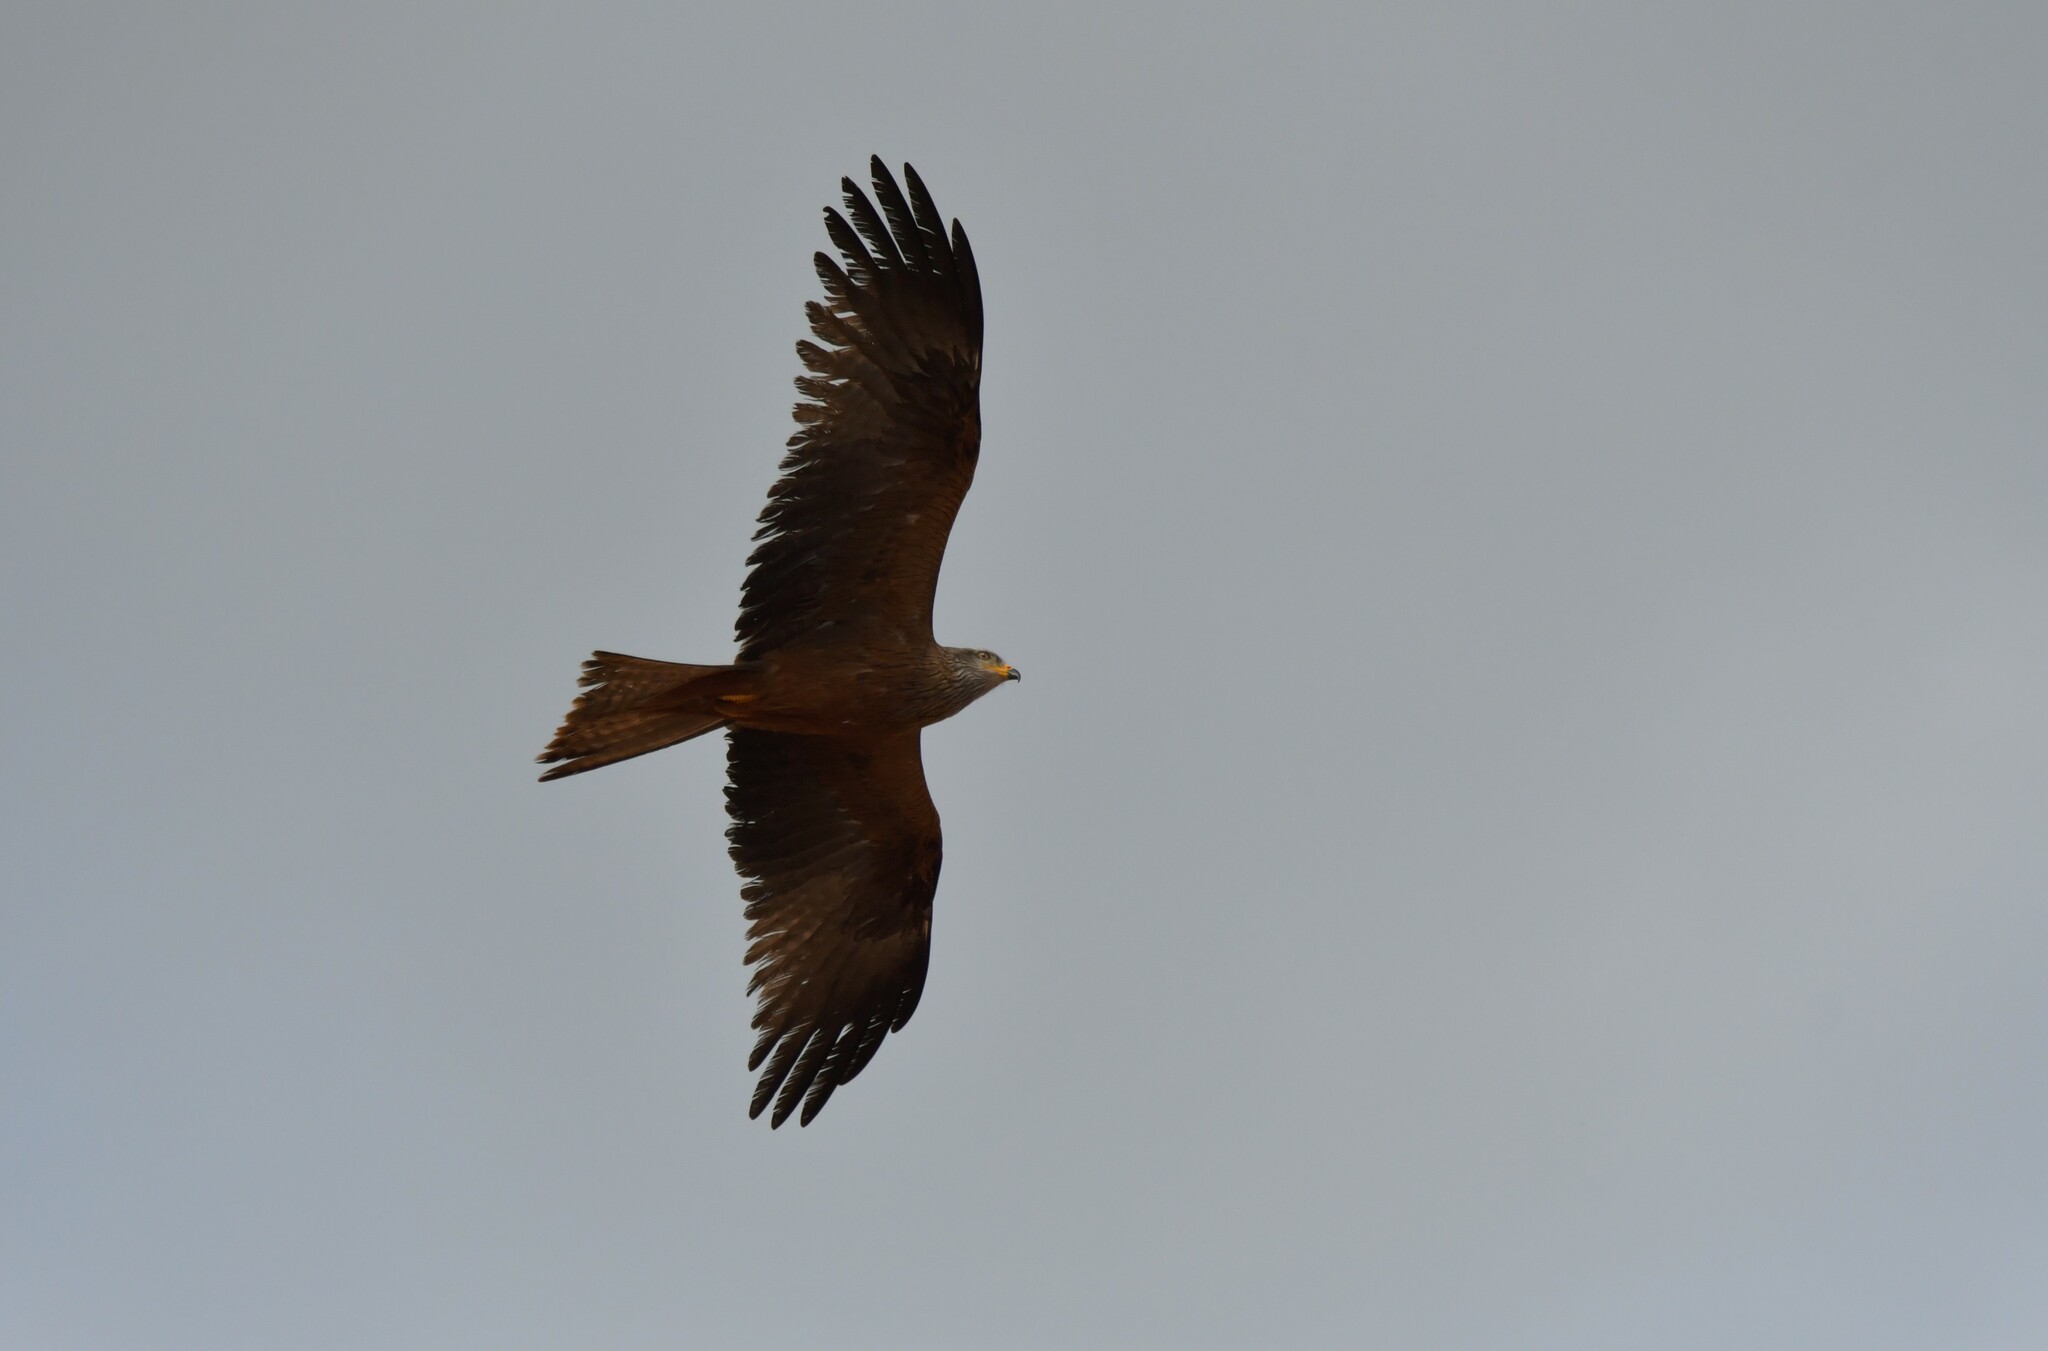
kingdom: Animalia
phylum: Chordata
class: Aves
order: Accipitriformes
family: Accipitridae
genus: Milvus
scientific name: Milvus migrans
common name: Black kite
